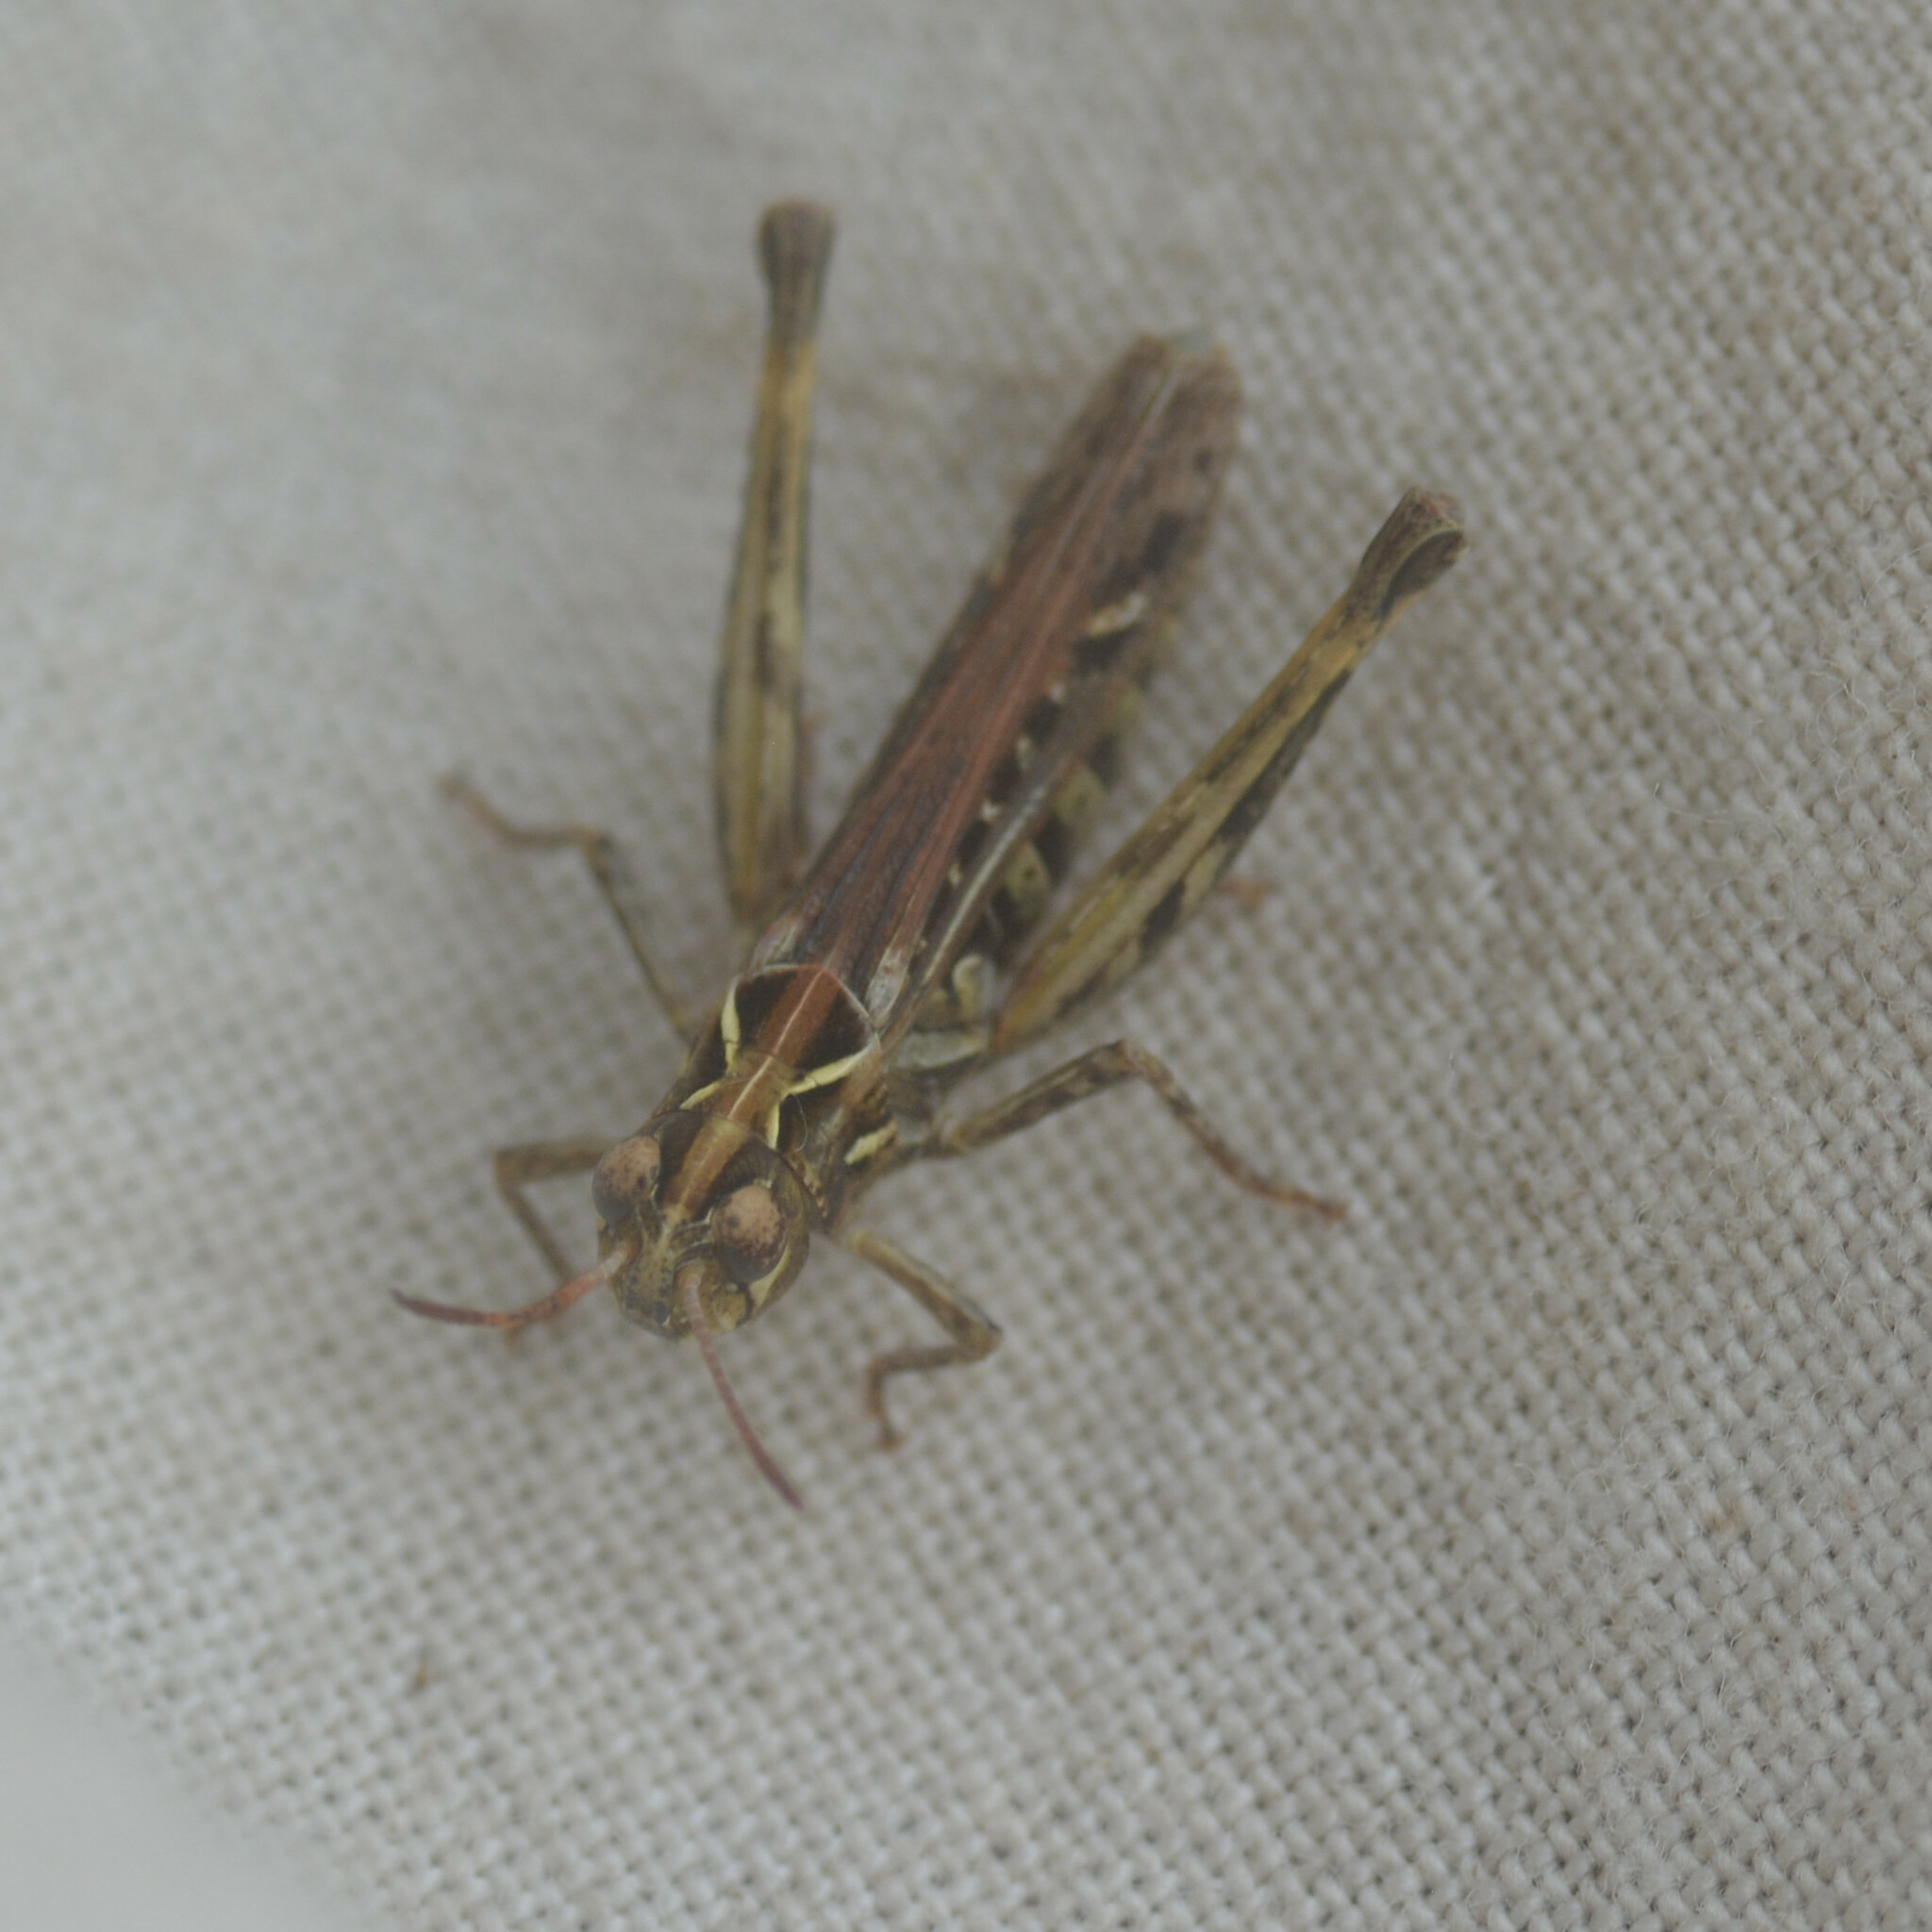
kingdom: Animalia
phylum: Arthropoda
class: Insecta
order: Orthoptera
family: Acrididae
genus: Myrmeleotettix
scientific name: Myrmeleotettix maculatus
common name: Mottled grasshopper
